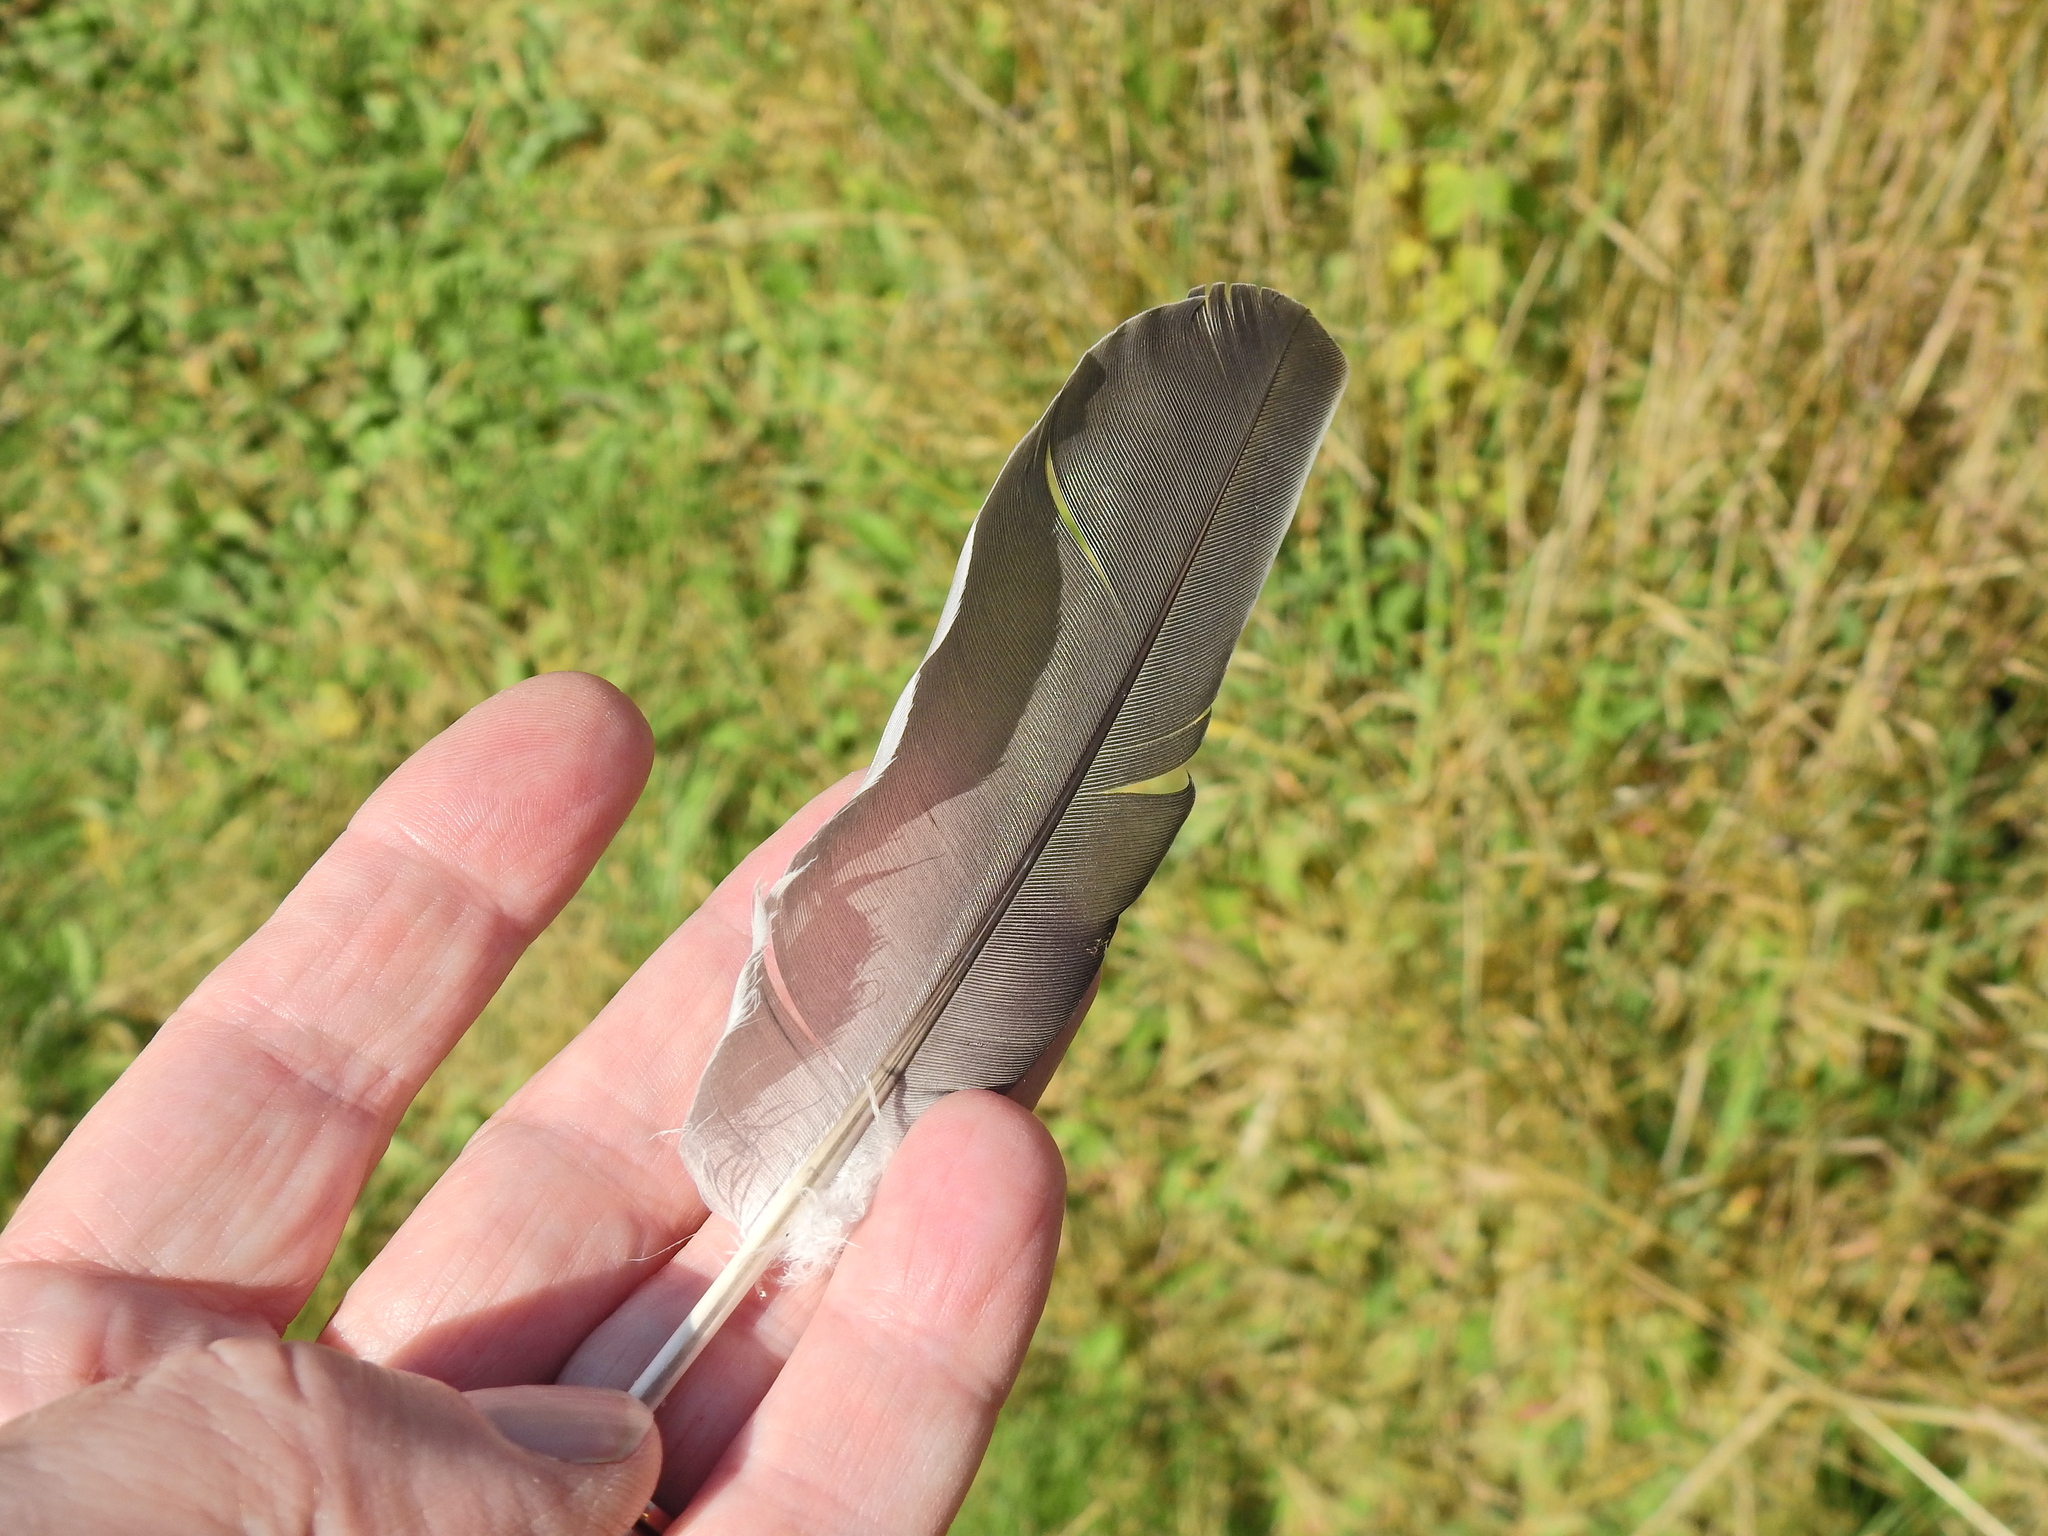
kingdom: Animalia
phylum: Chordata
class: Aves
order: Columbiformes
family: Columbidae
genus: Columba
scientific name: Columba palumbus
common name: Common wood pigeon
